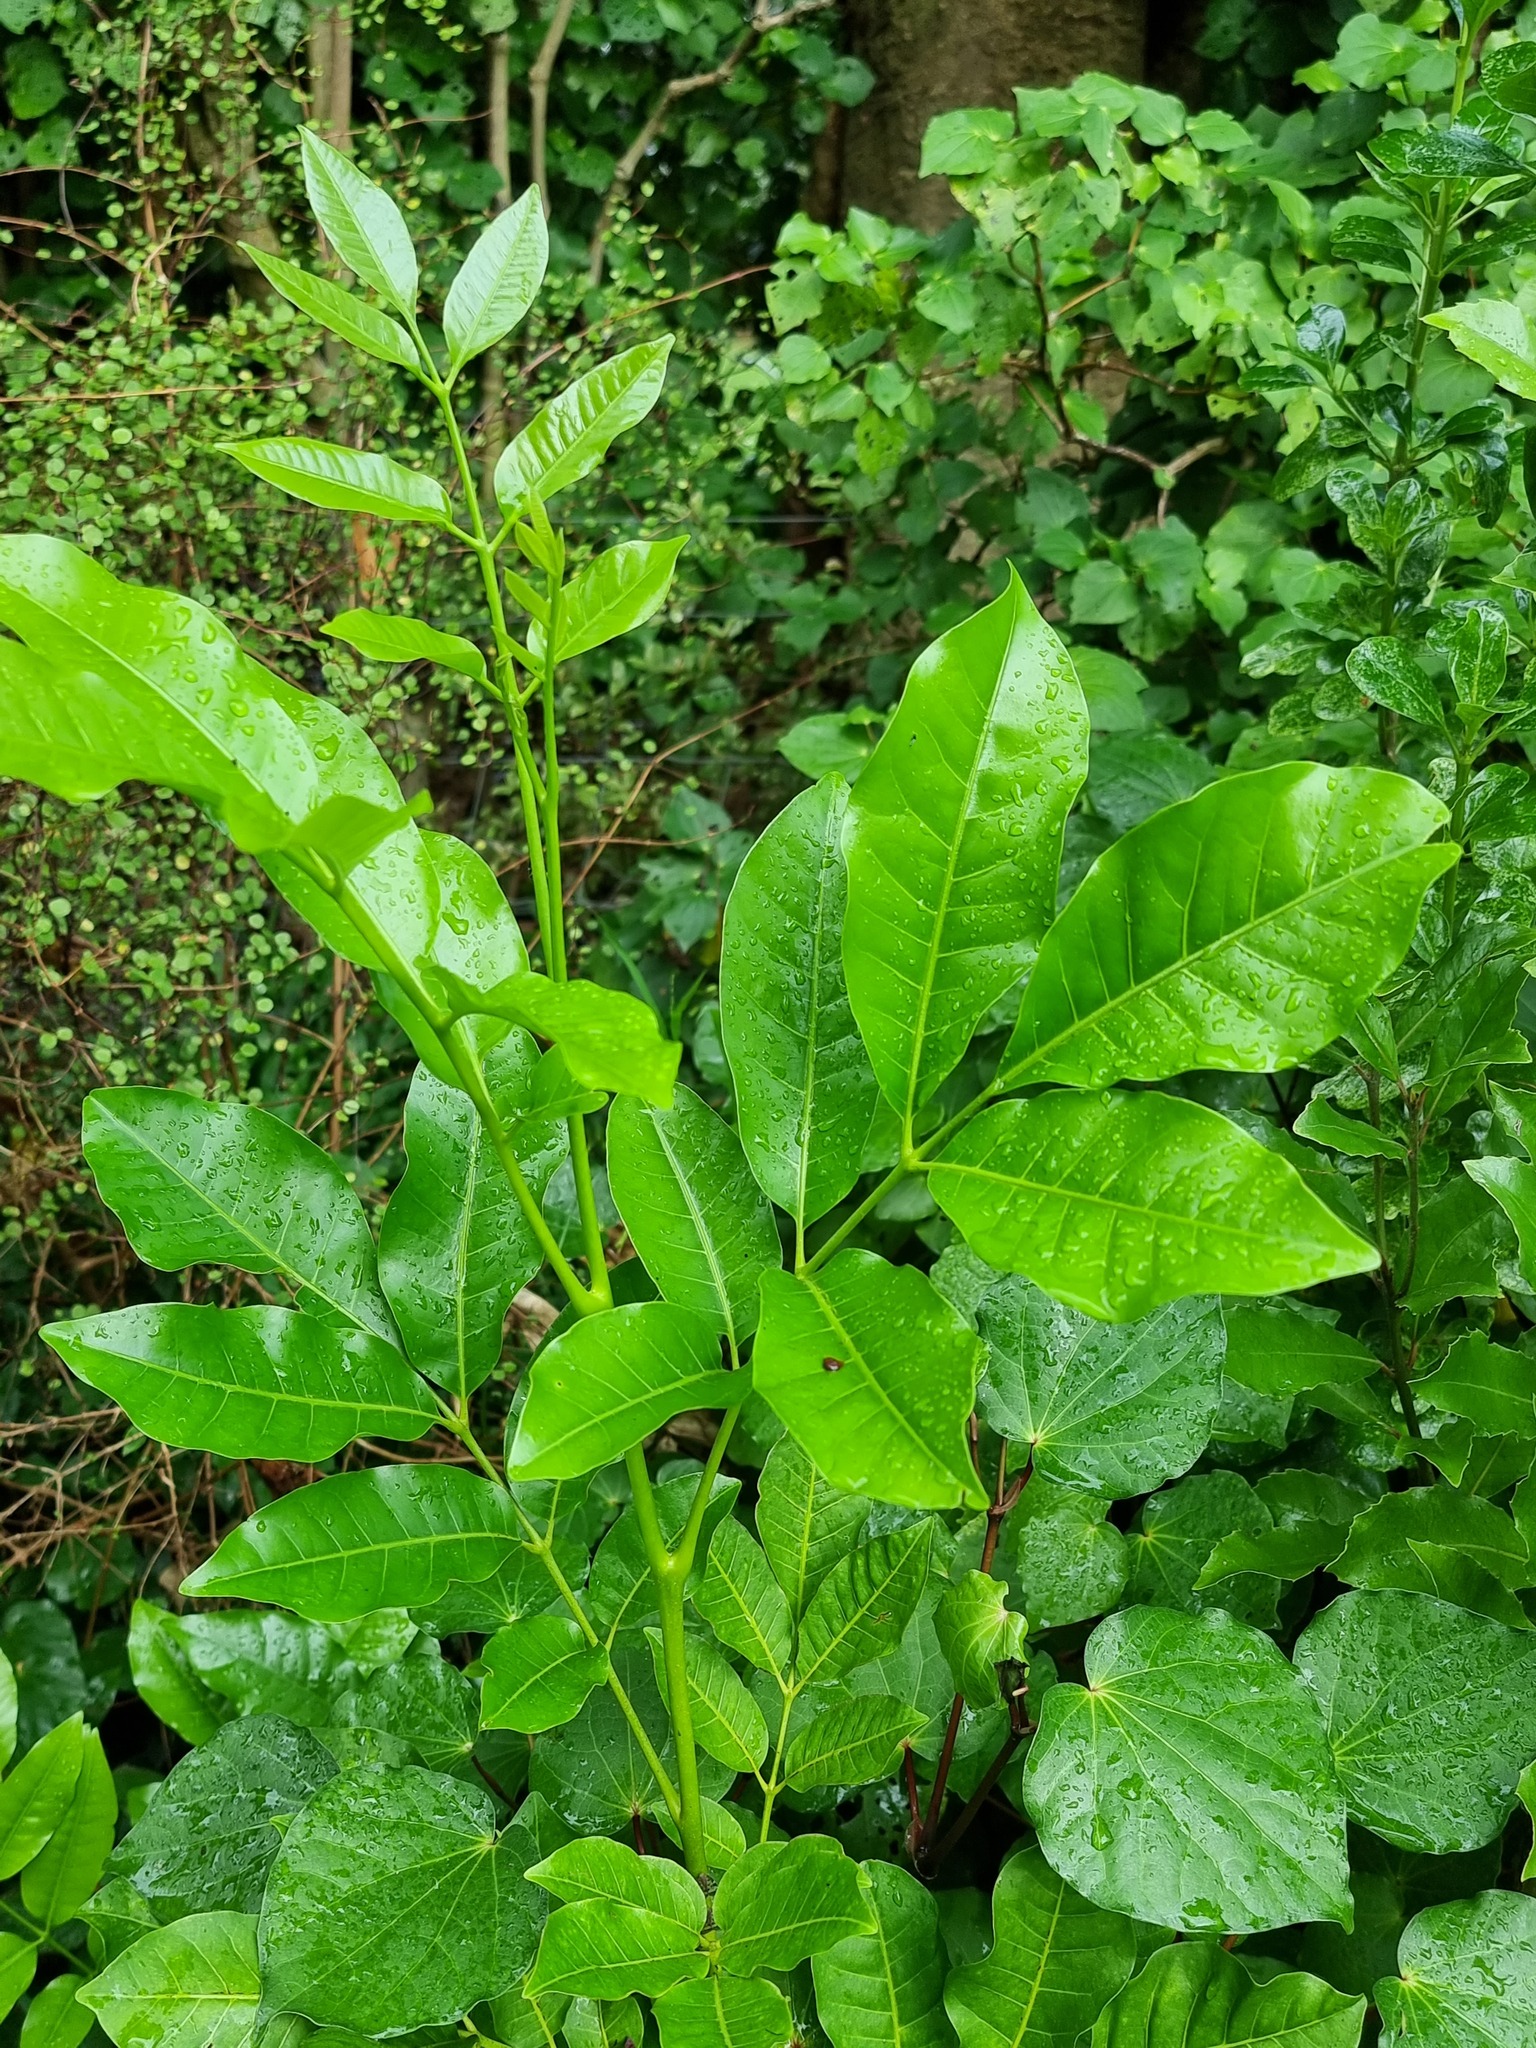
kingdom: Plantae
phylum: Tracheophyta
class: Magnoliopsida
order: Sapindales
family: Meliaceae
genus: Didymocheton
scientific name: Didymocheton spectabilis
